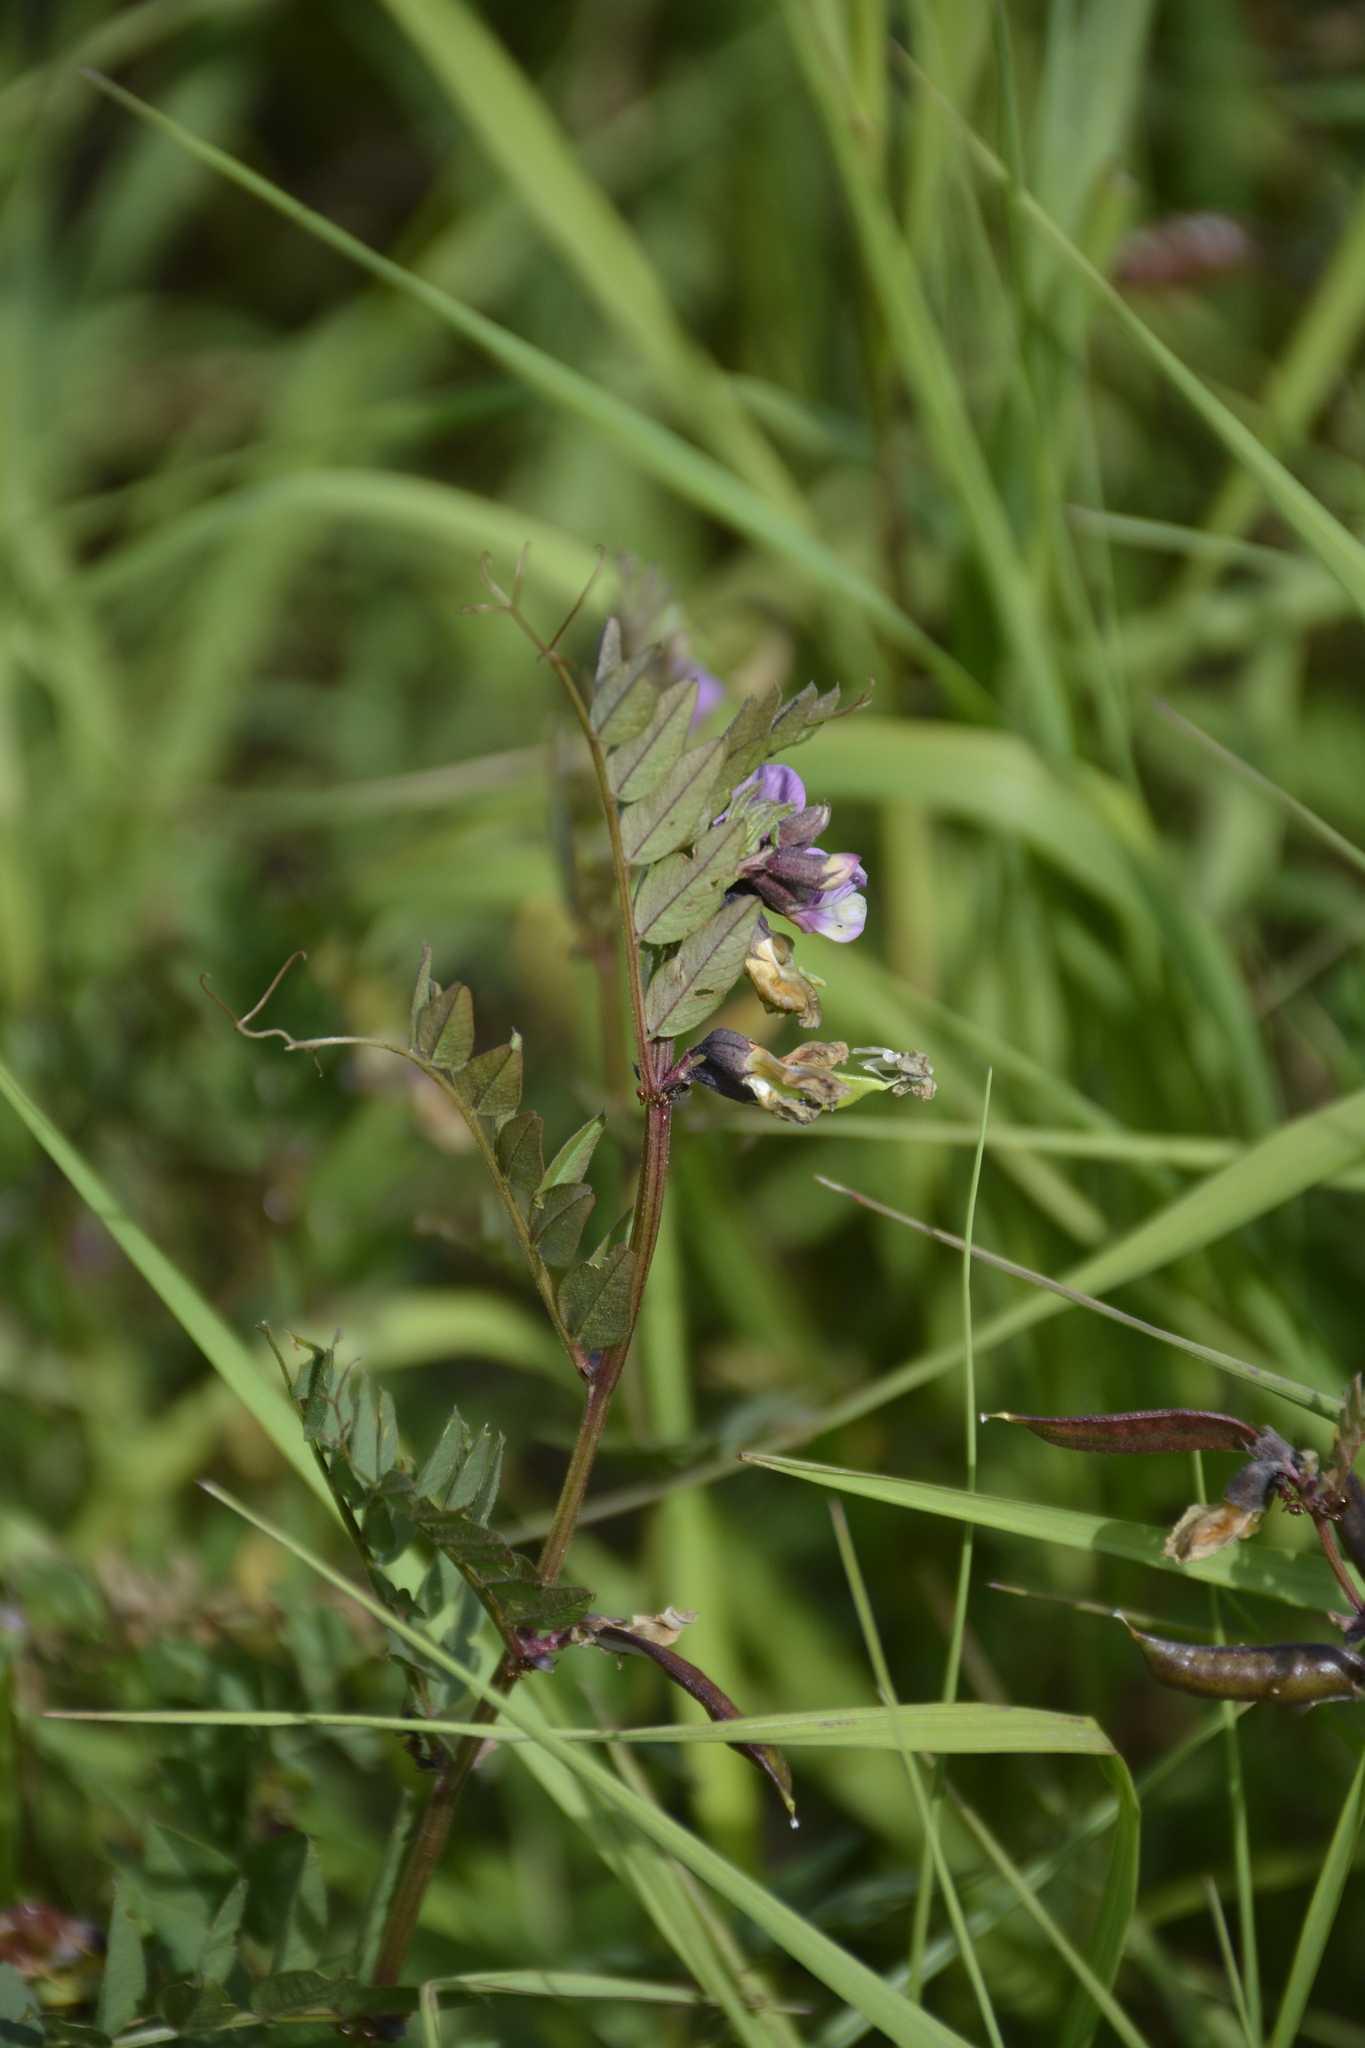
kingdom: Plantae
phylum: Tracheophyta
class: Magnoliopsida
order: Fabales
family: Fabaceae
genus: Vicia
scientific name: Vicia sepium
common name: Bush vetch
